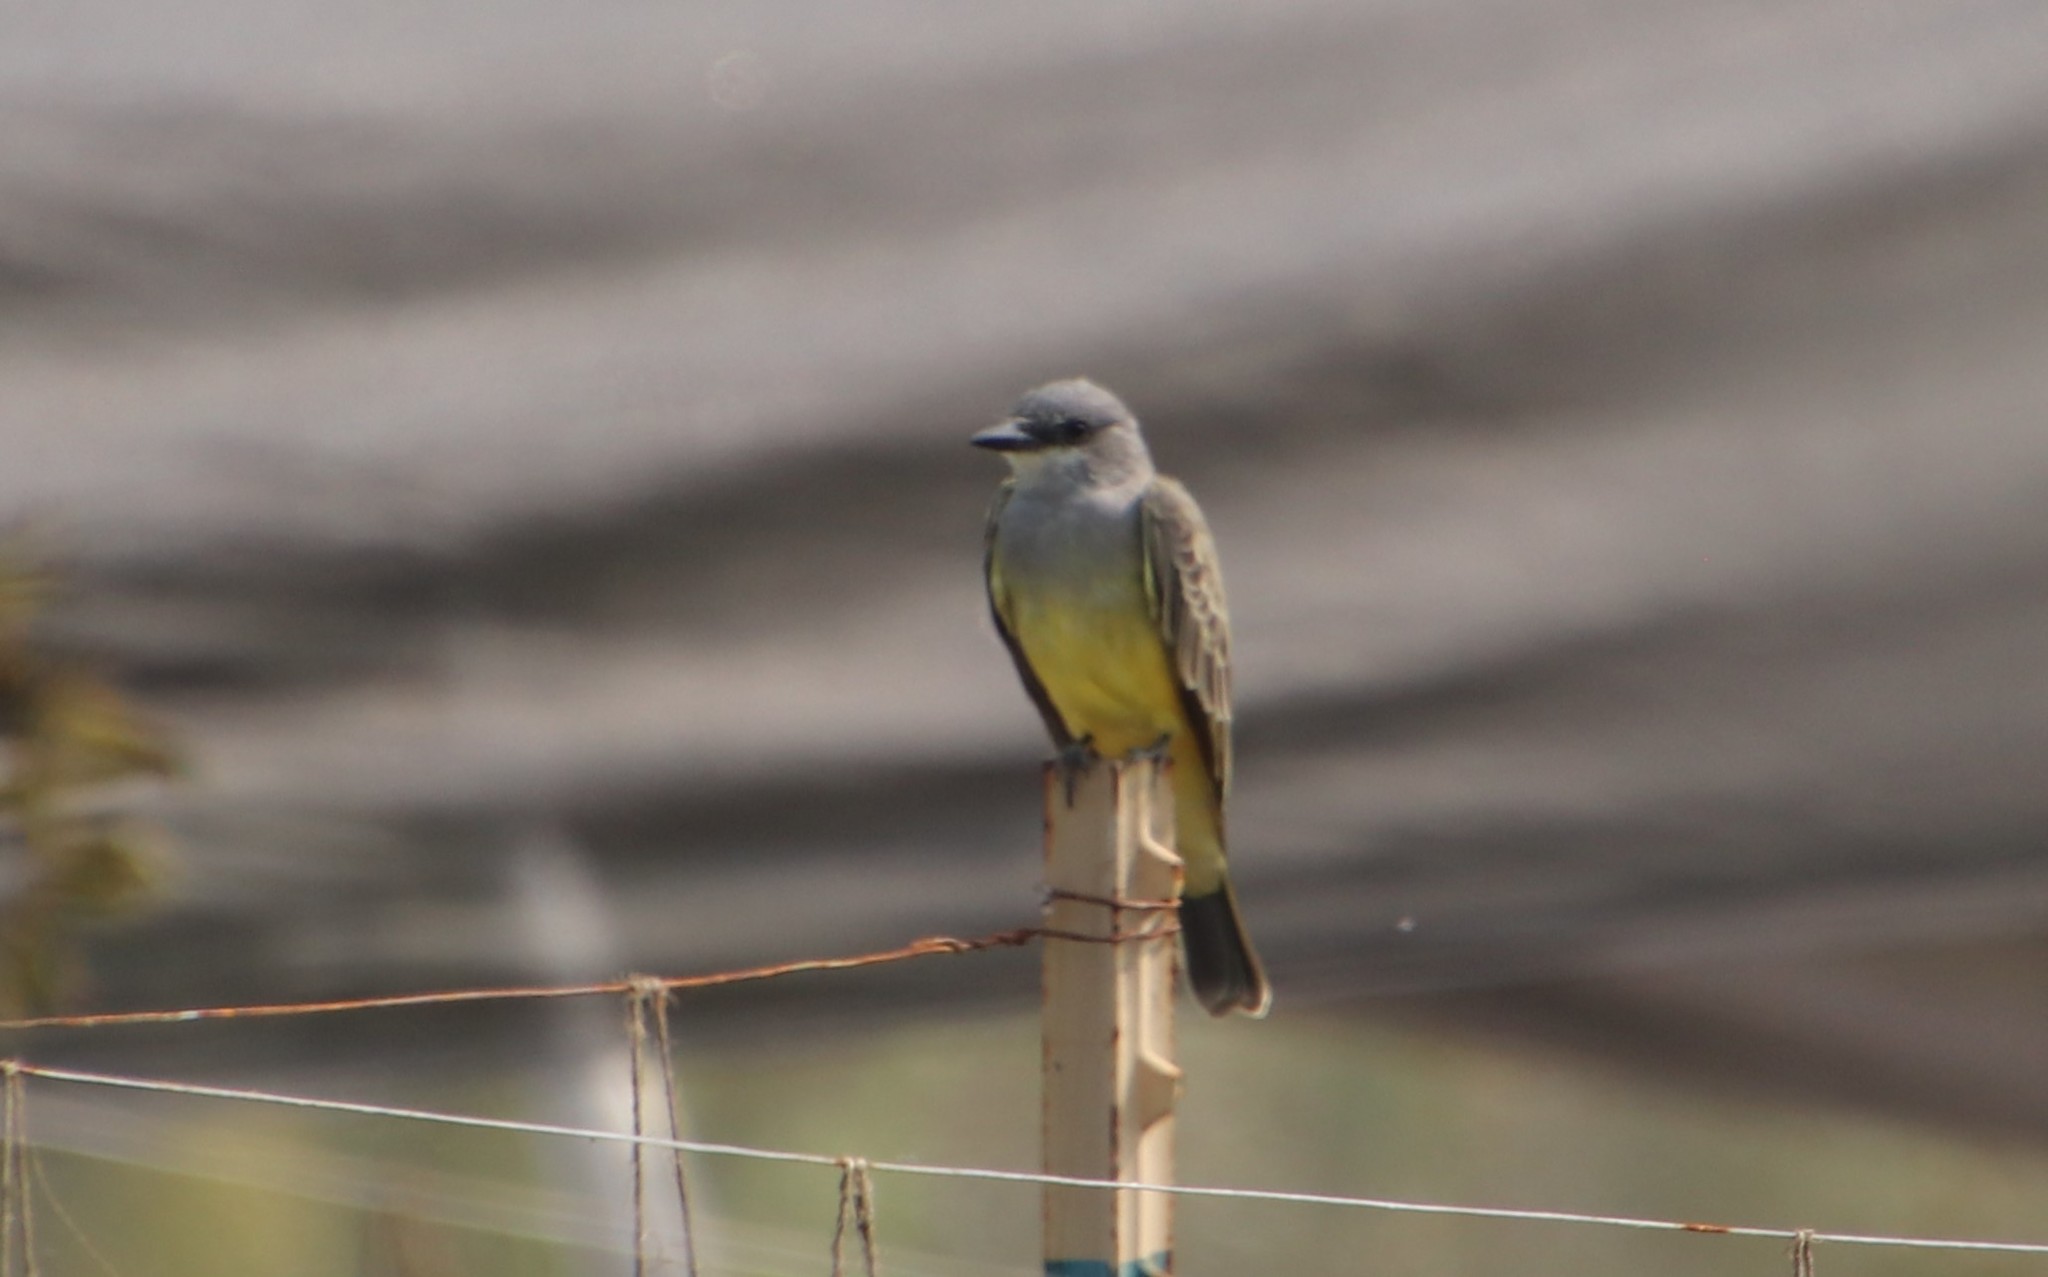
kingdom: Animalia
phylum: Chordata
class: Aves
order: Passeriformes
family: Tyrannidae
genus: Tyrannus
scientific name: Tyrannus vociferans
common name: Cassin's kingbird
